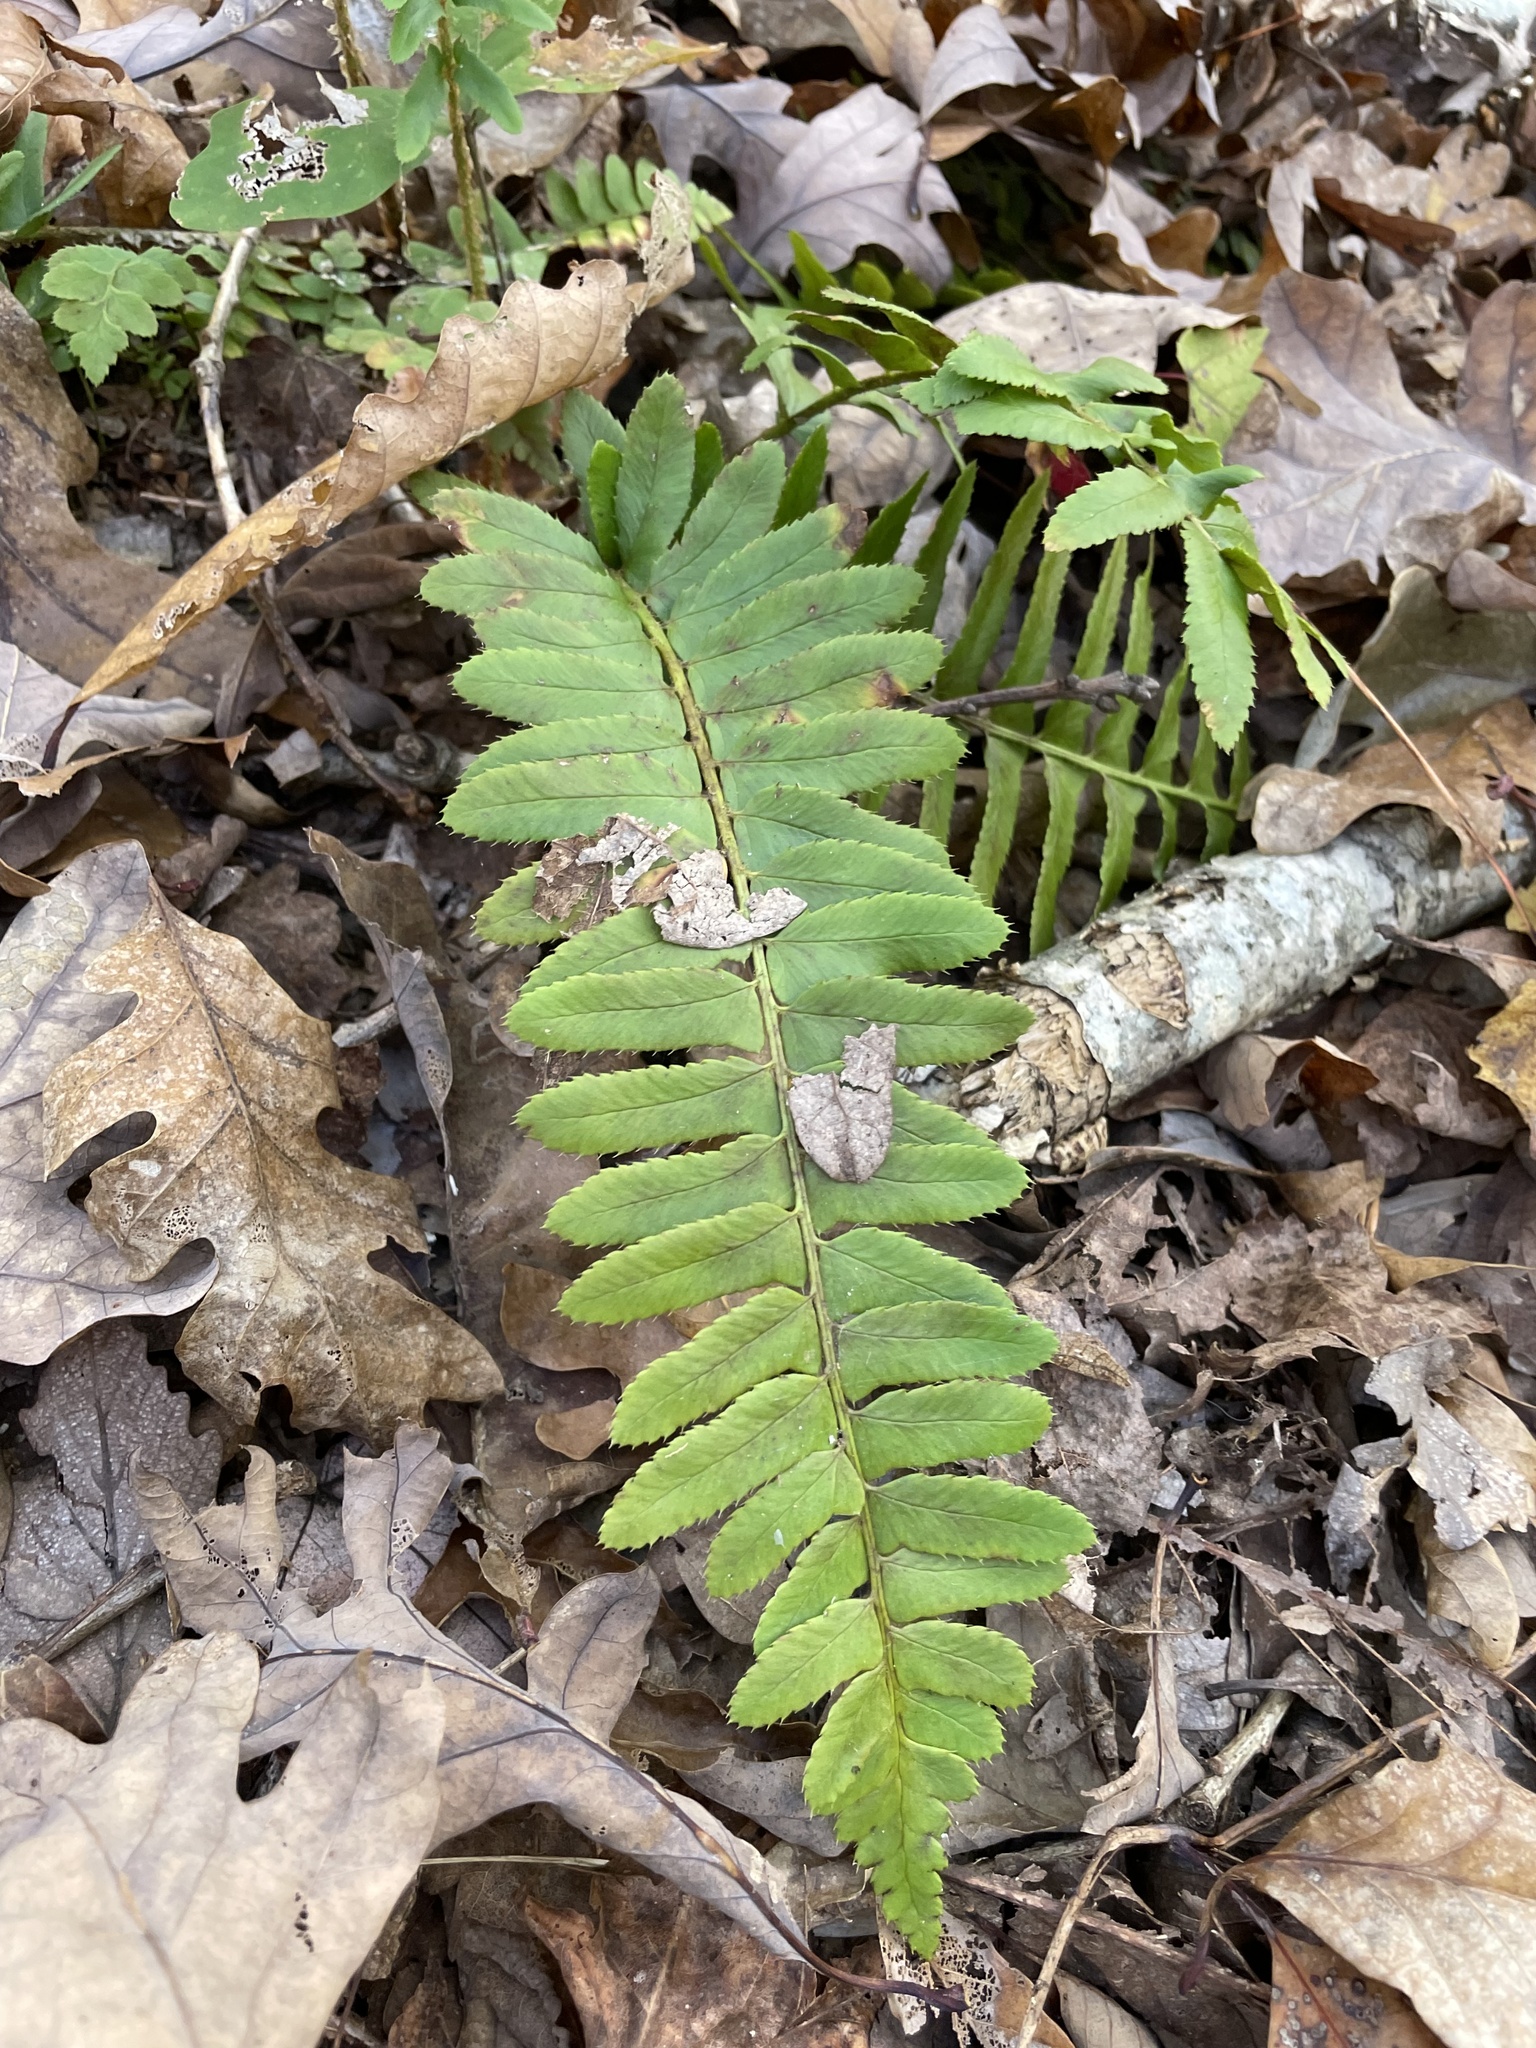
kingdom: Plantae
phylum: Tracheophyta
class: Polypodiopsida
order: Polypodiales
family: Dryopteridaceae
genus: Polystichum
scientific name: Polystichum acrostichoides
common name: Christmas fern
